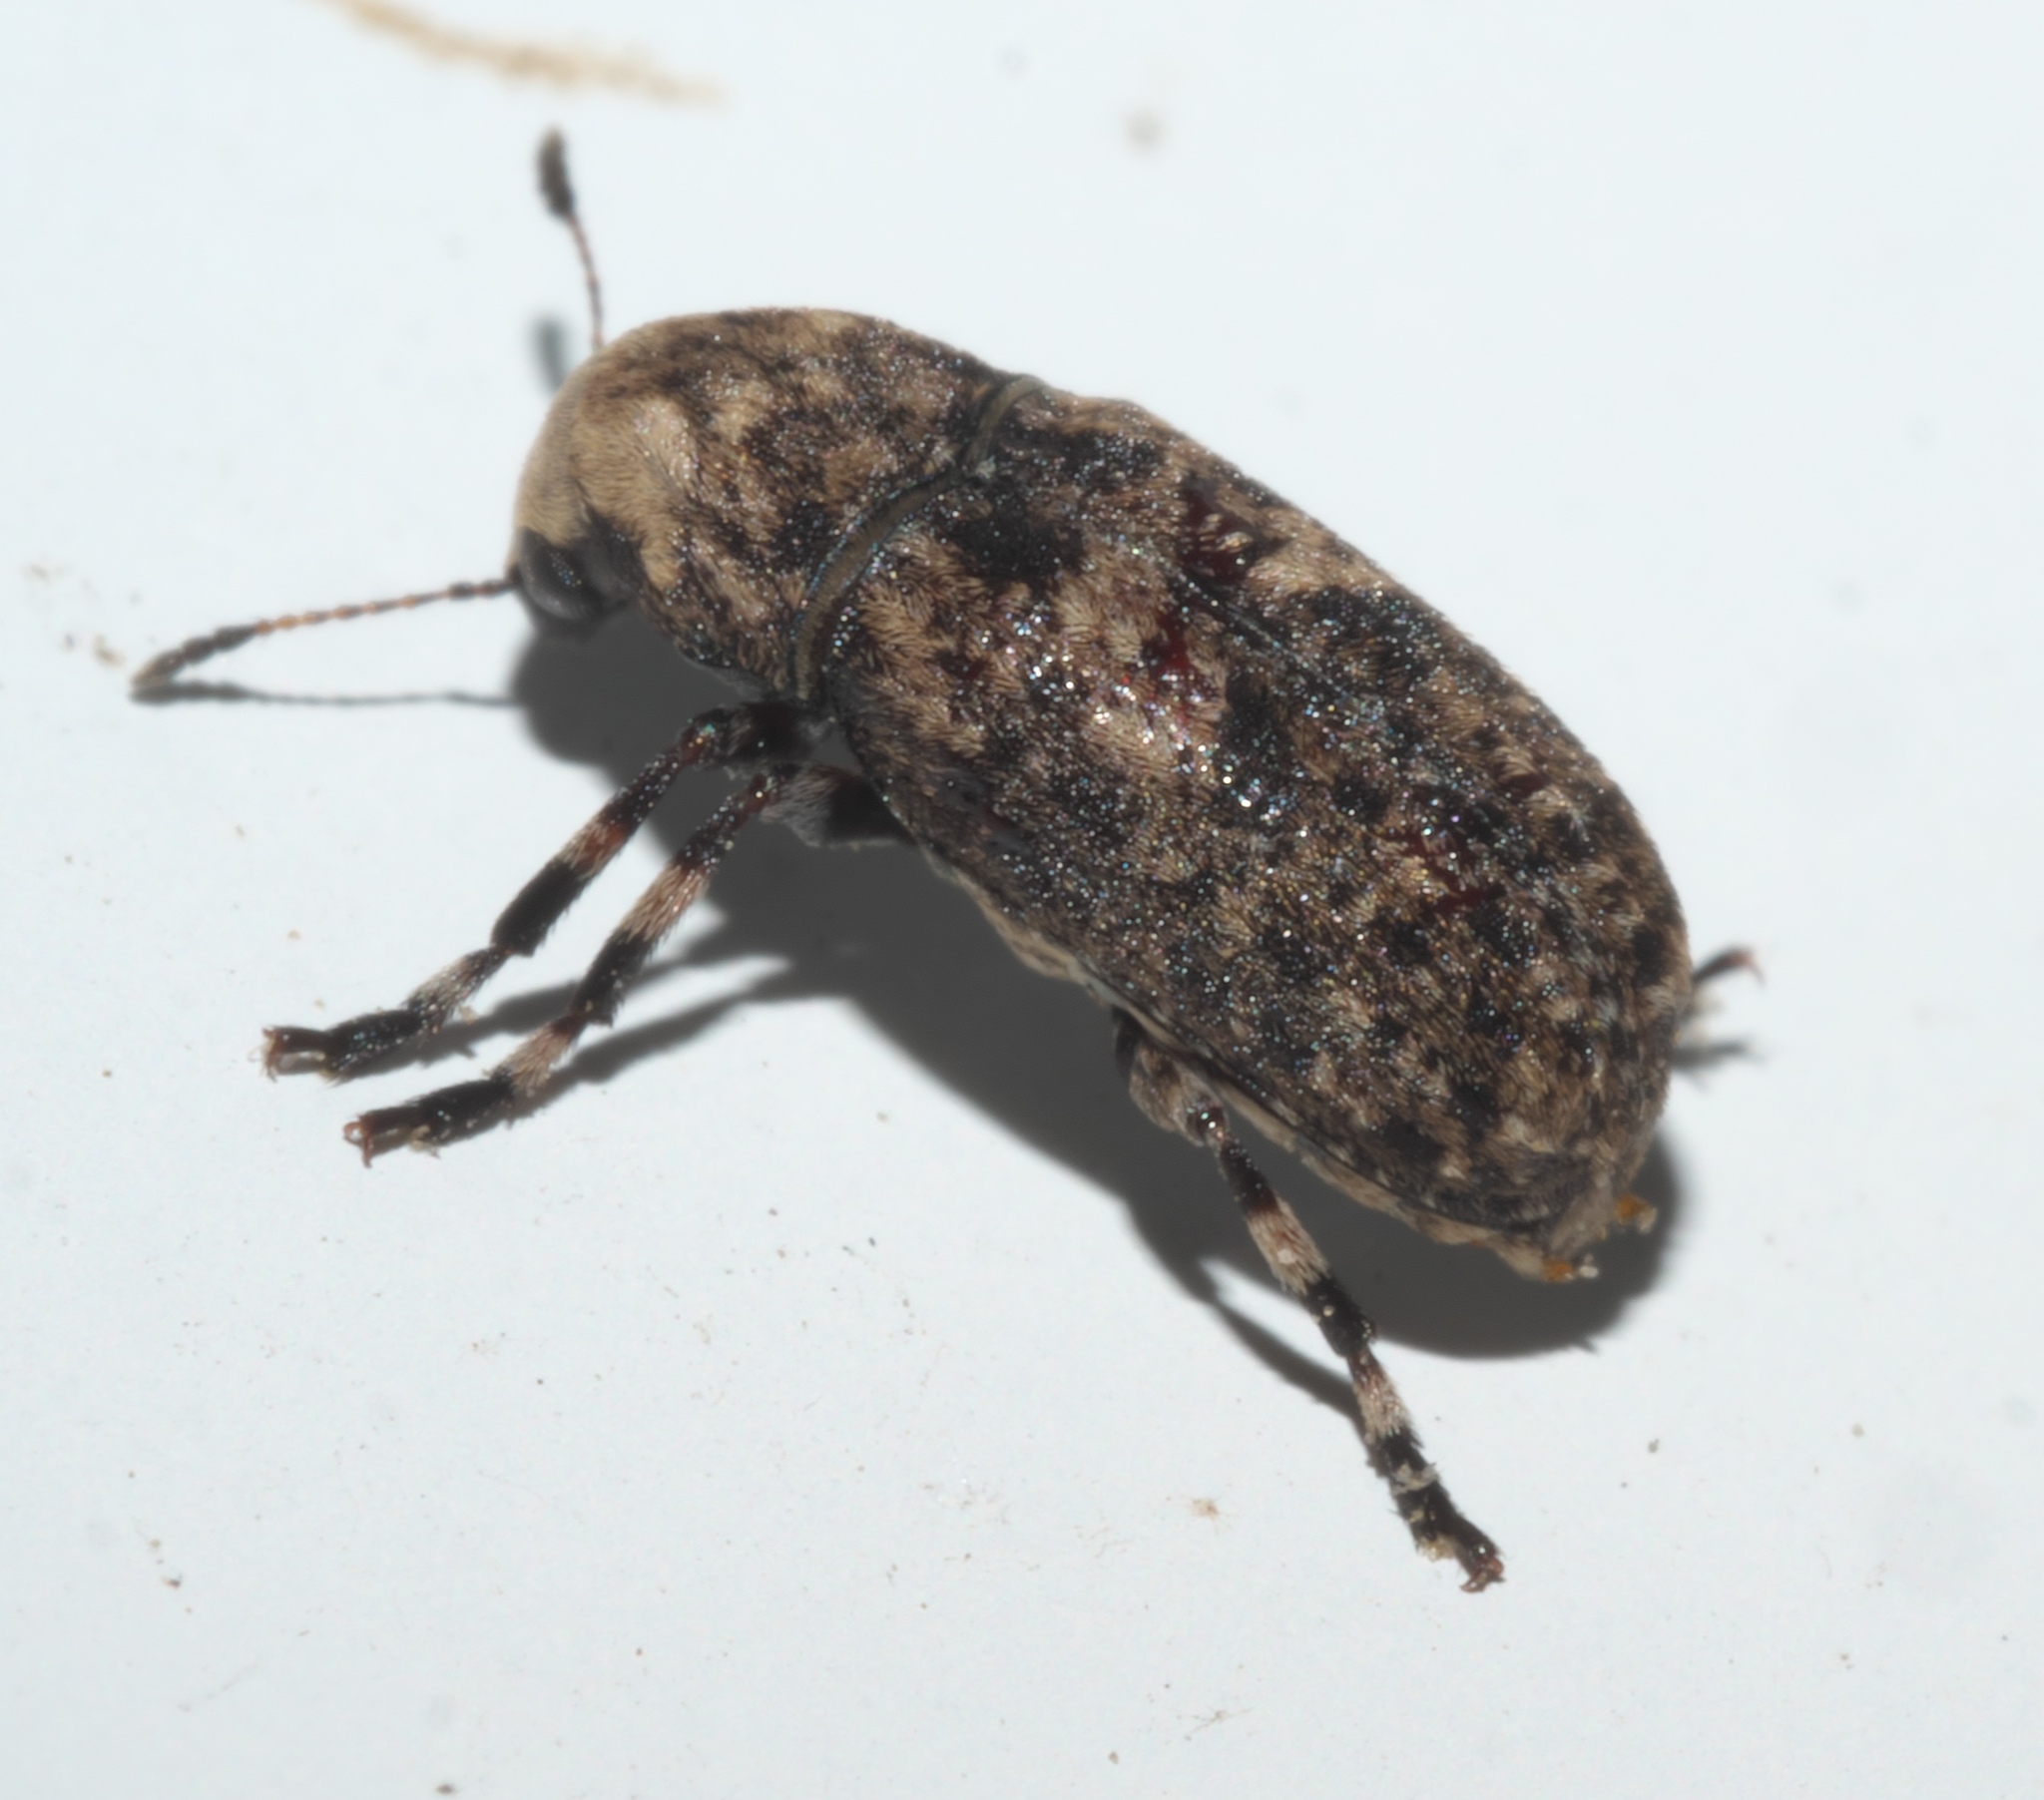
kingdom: Animalia
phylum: Arthropoda
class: Insecta
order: Coleoptera
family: Anthribidae
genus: Euparius
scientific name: Euparius marmoreus
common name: Marbled fungus weevil
